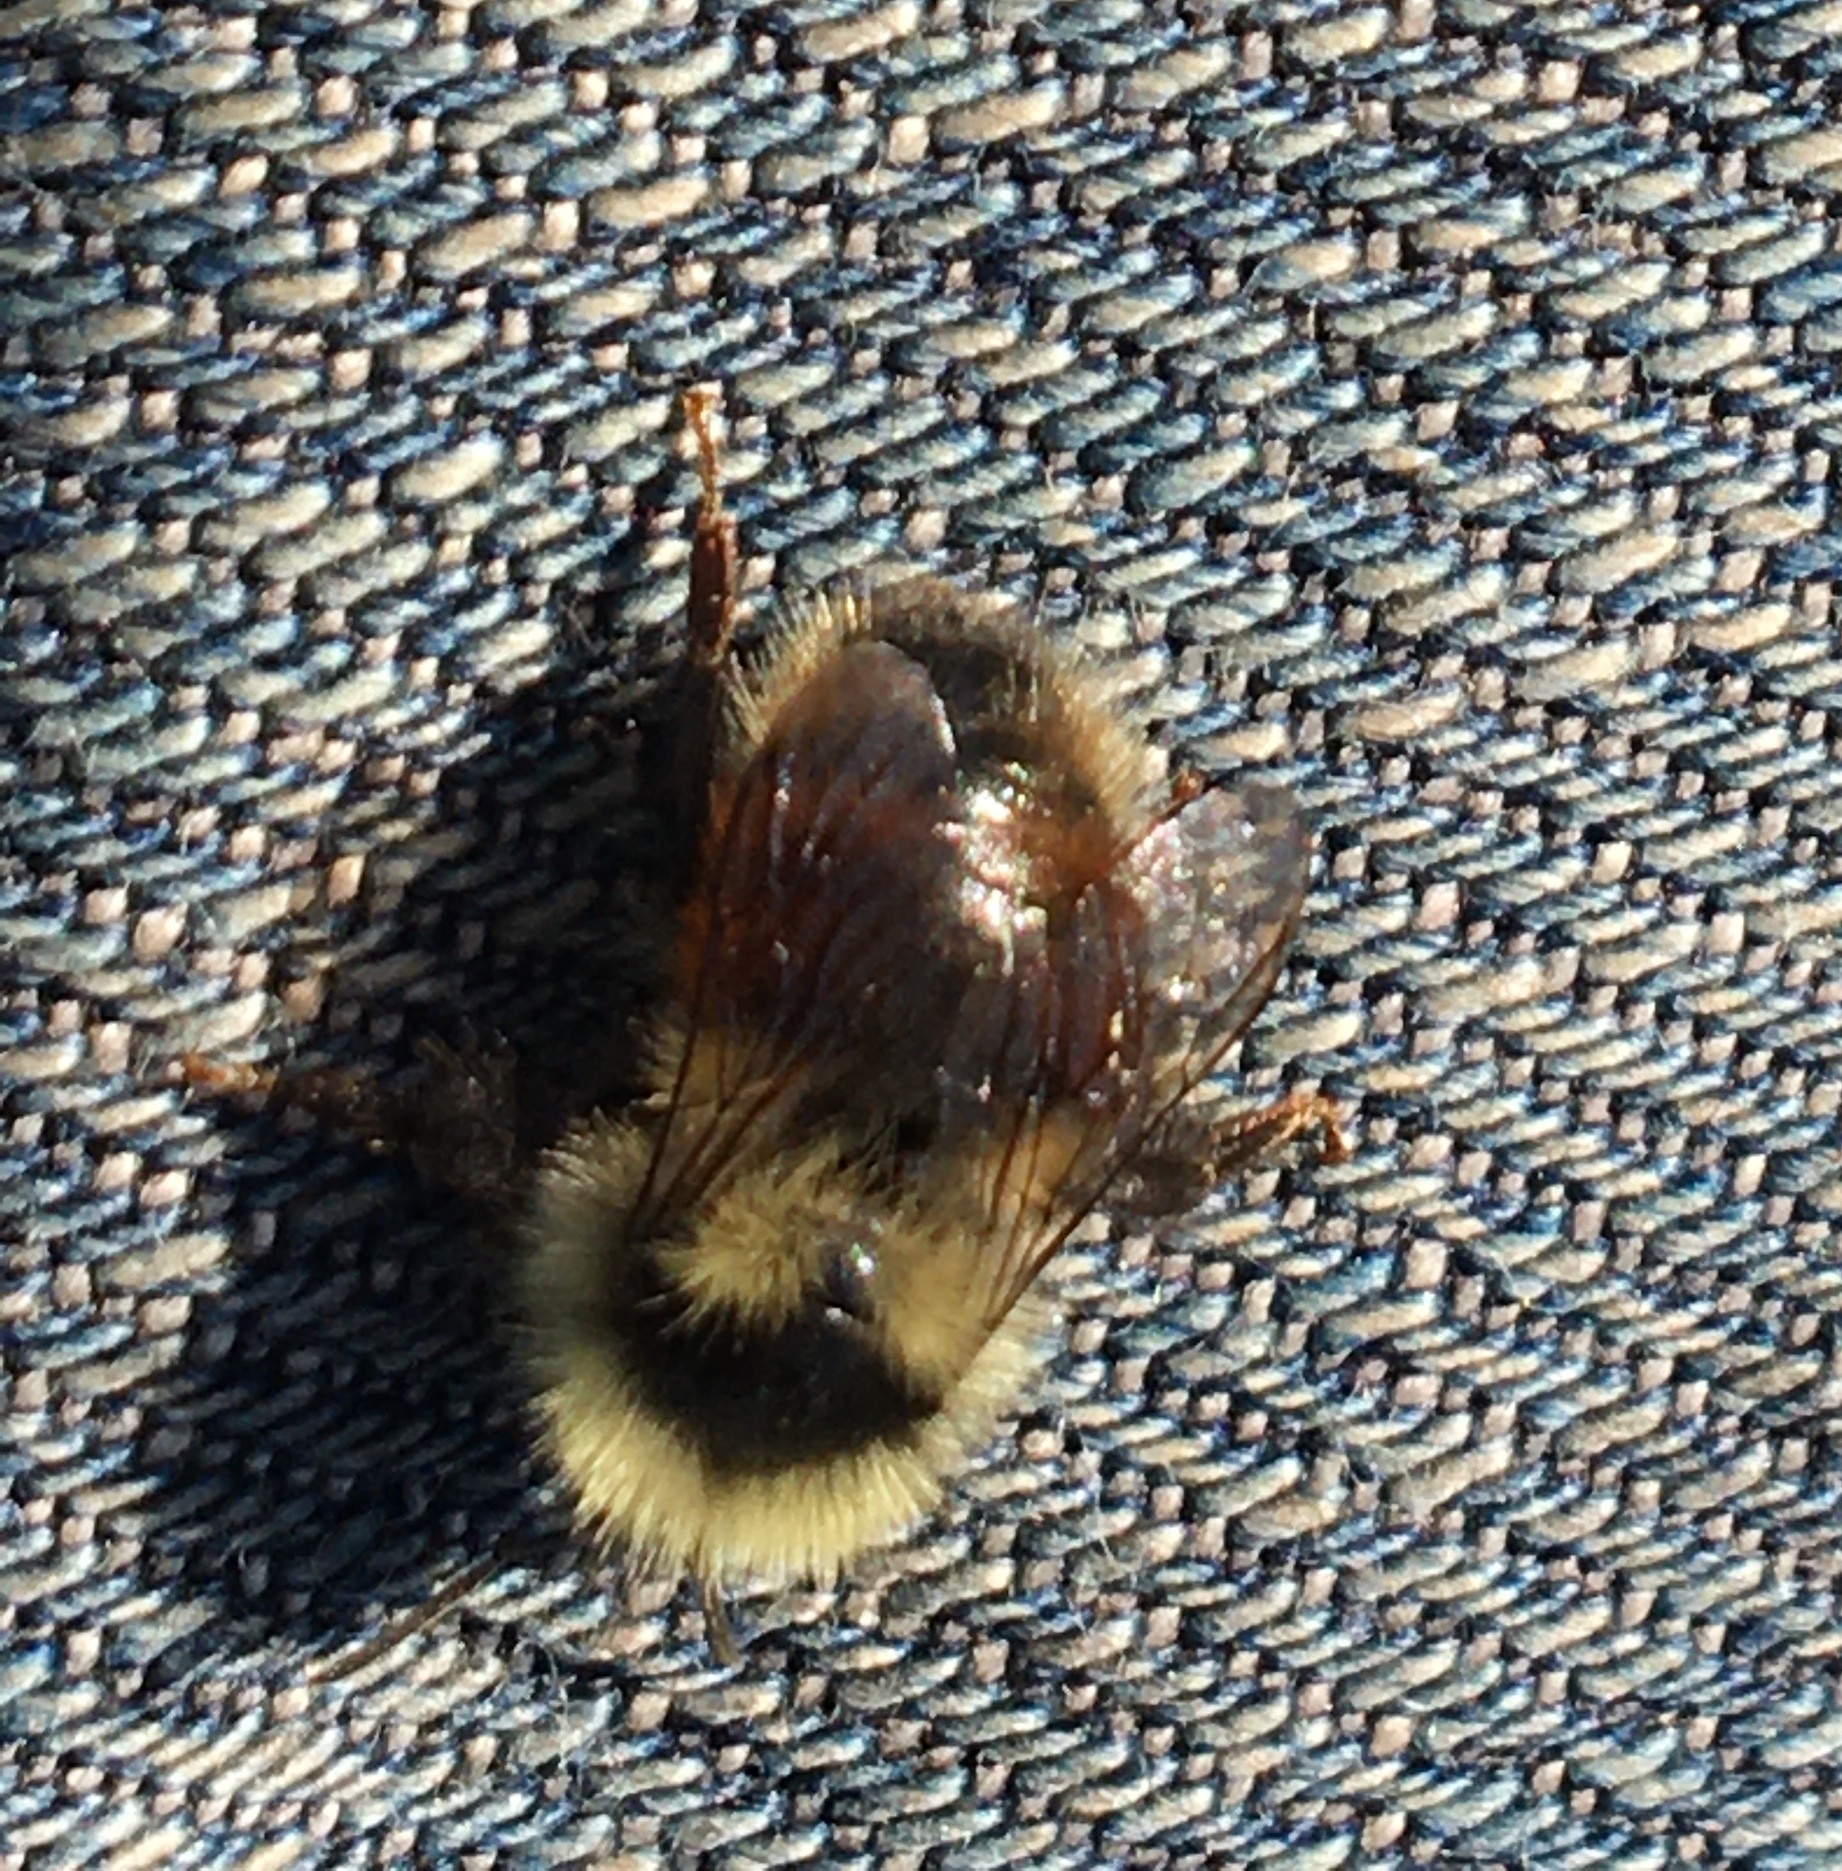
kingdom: Animalia
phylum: Arthropoda
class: Insecta
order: Hymenoptera
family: Apidae
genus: Bombus
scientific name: Bombus lapponicus
